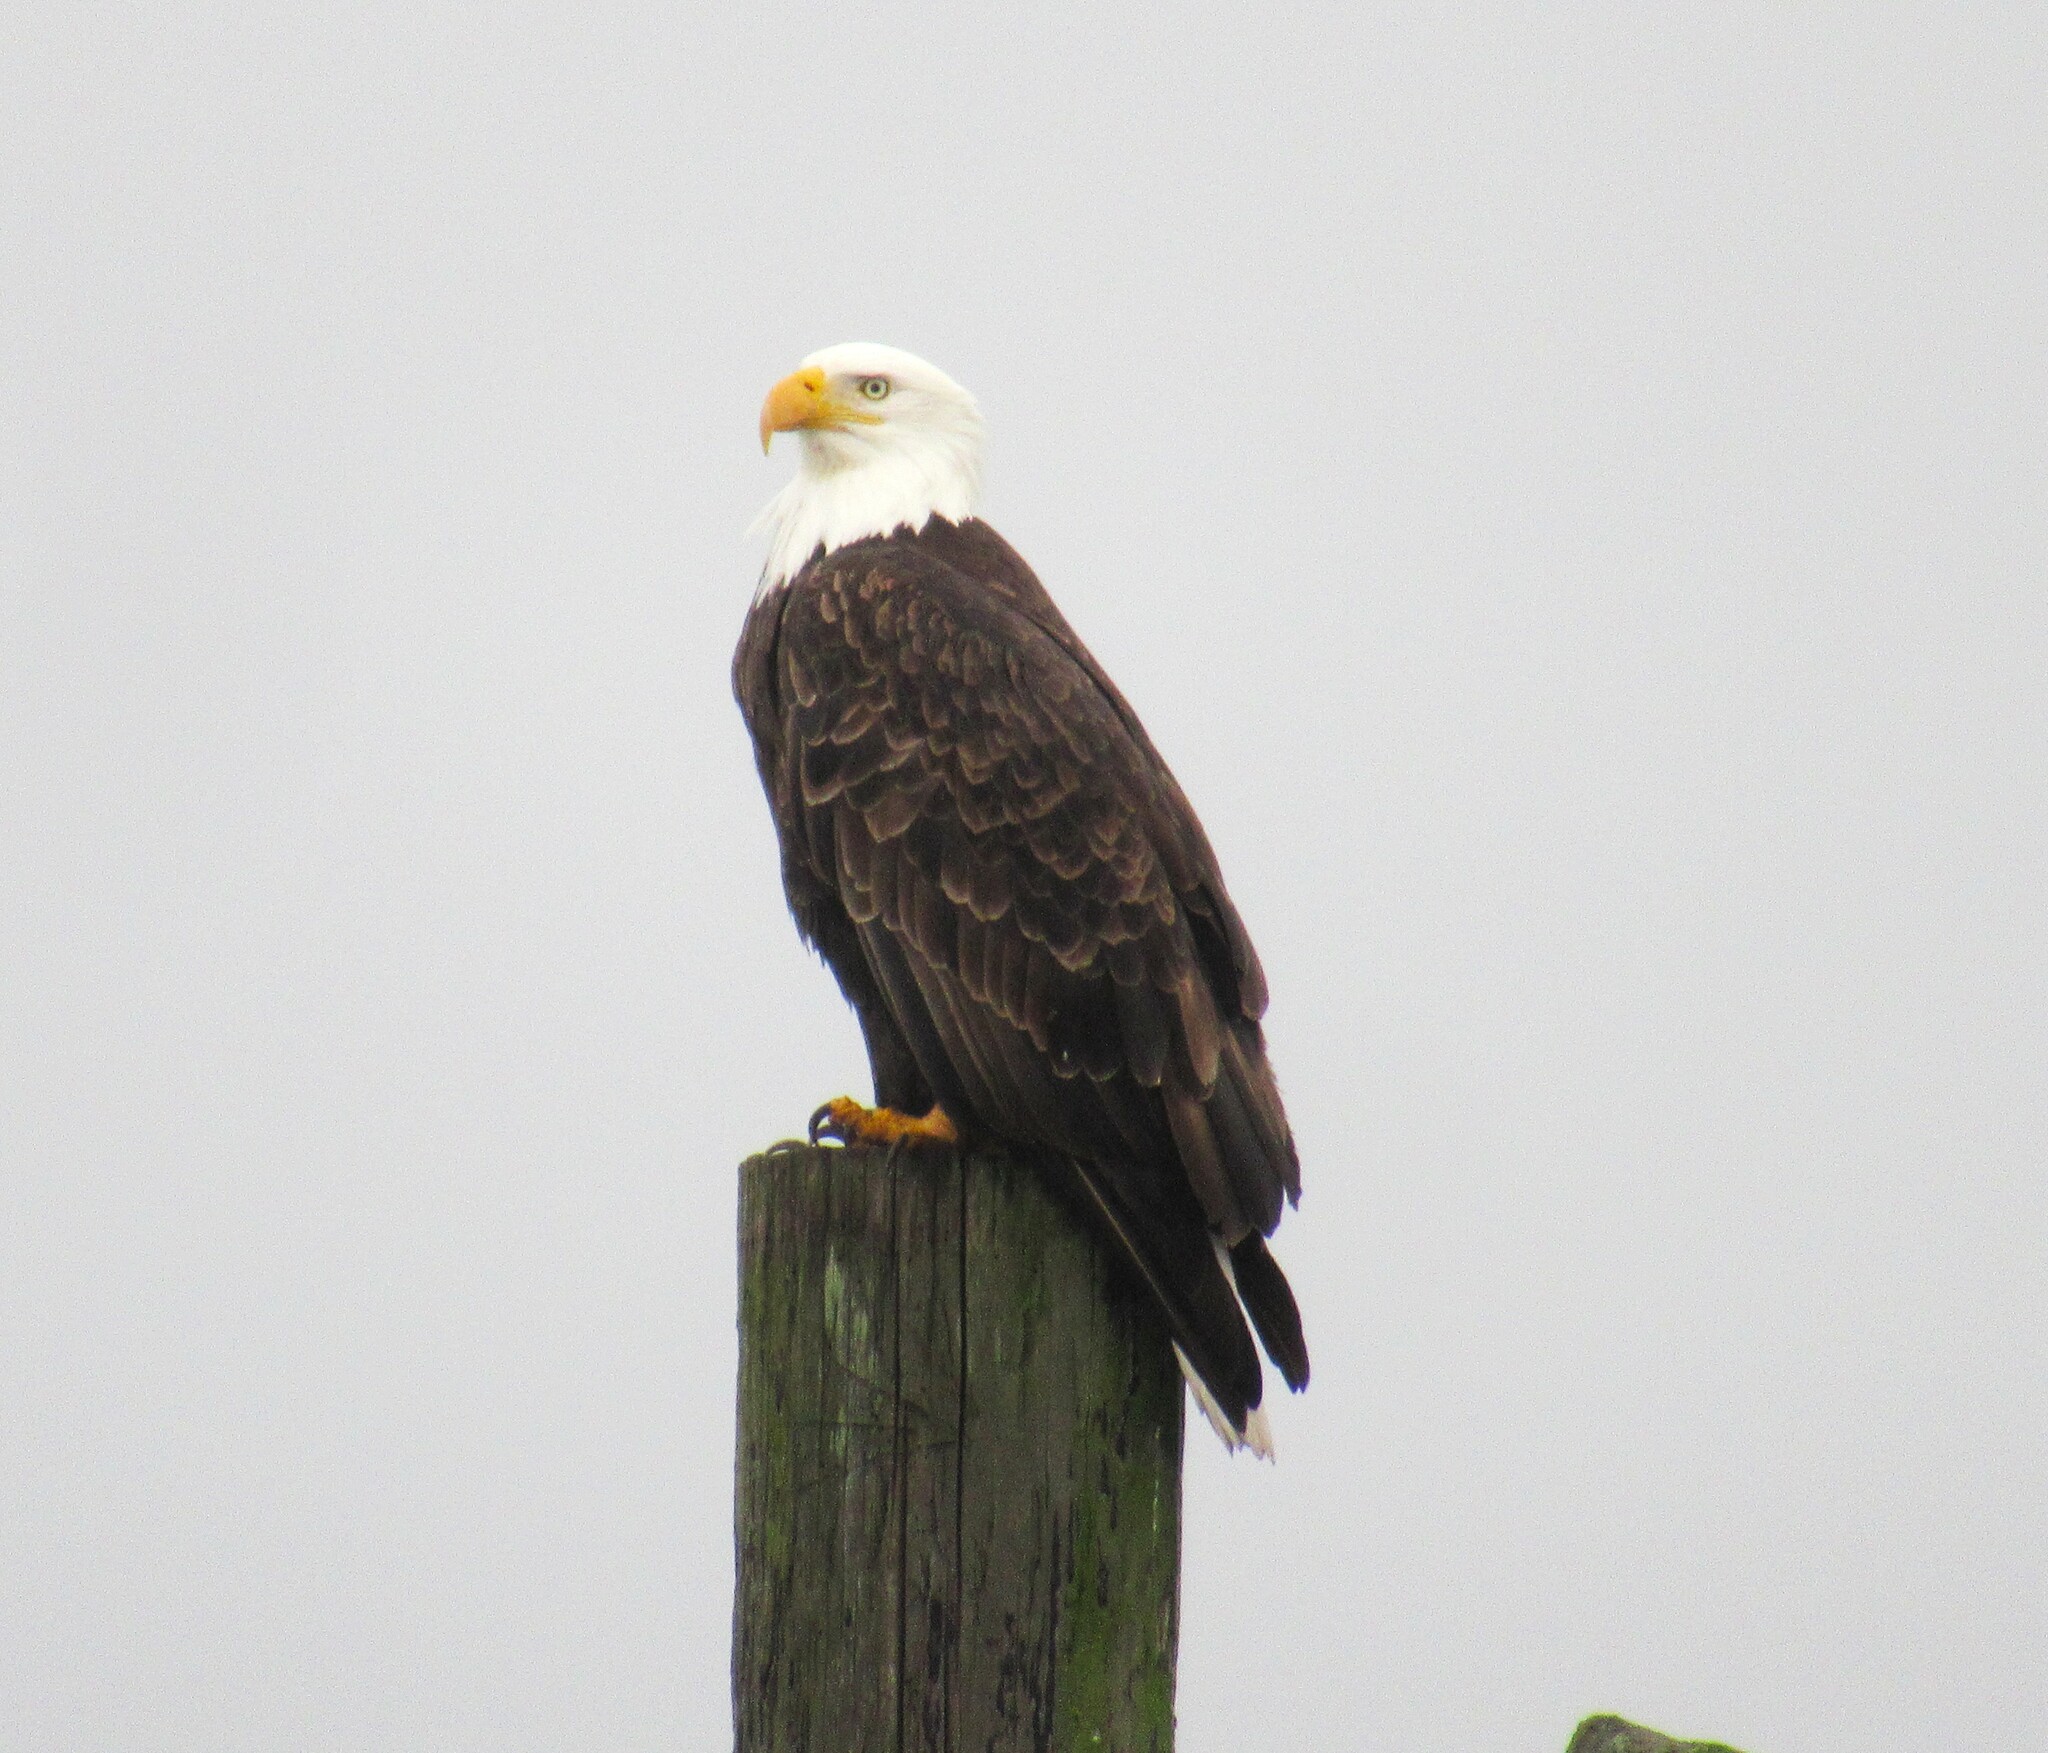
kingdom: Animalia
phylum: Chordata
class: Aves
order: Accipitriformes
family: Accipitridae
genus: Haliaeetus
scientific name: Haliaeetus leucocephalus
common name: Bald eagle
